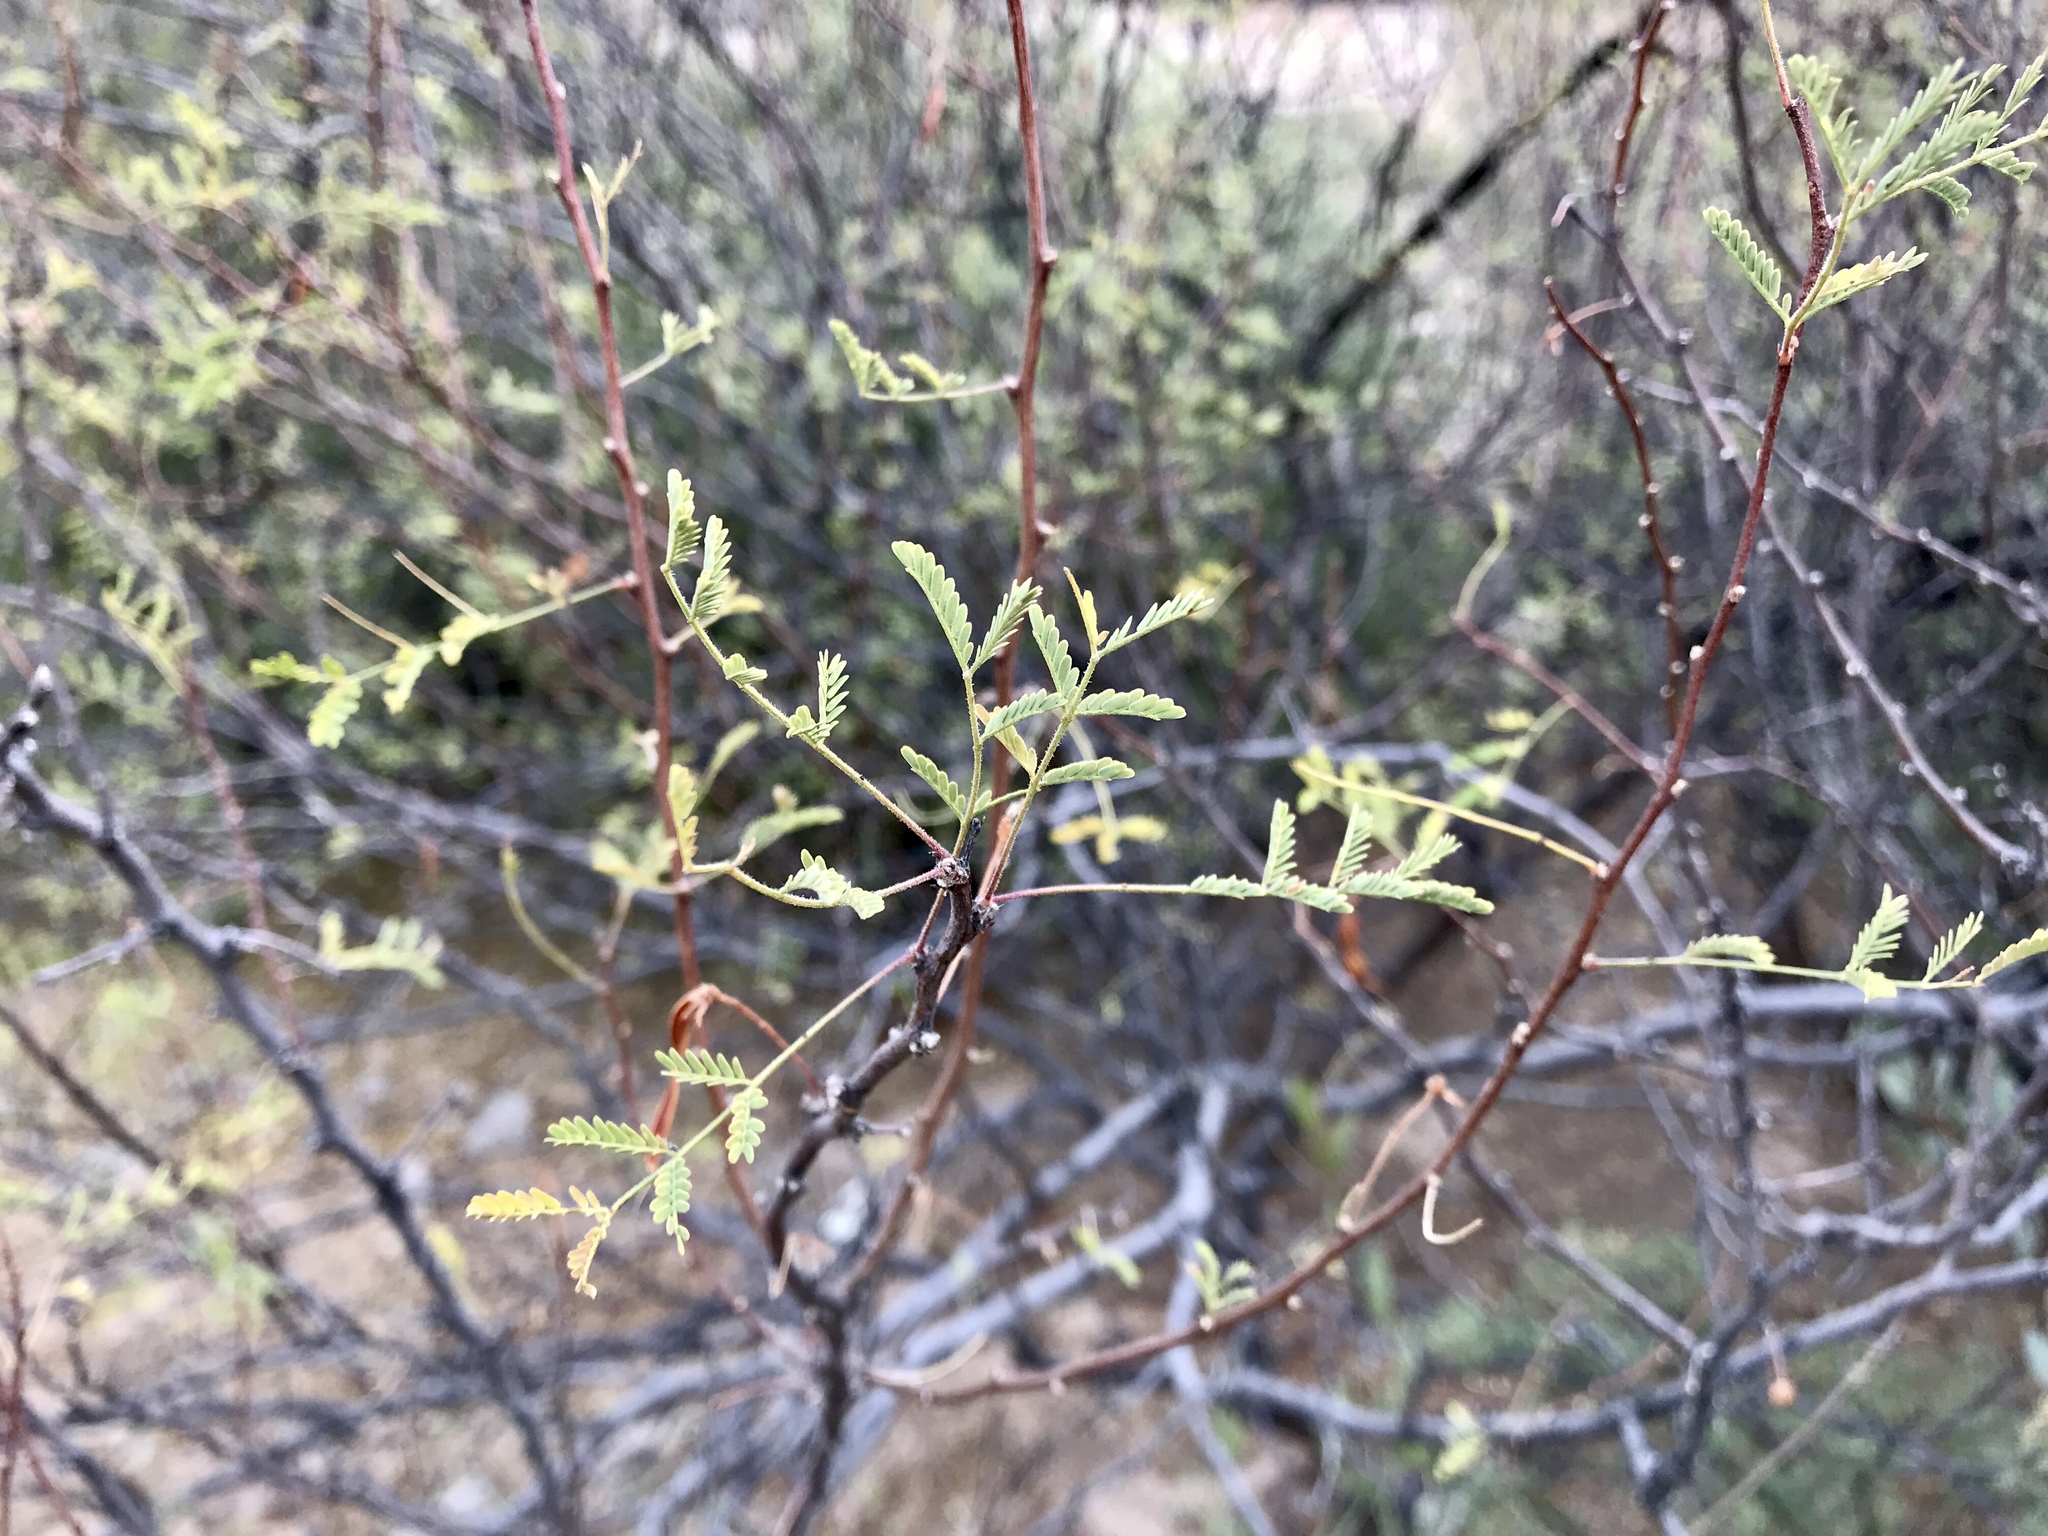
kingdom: Plantae
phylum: Tracheophyta
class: Magnoliopsida
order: Fabales
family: Fabaceae
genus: Vachellia
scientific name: Vachellia constricta
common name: Mescat acacia
